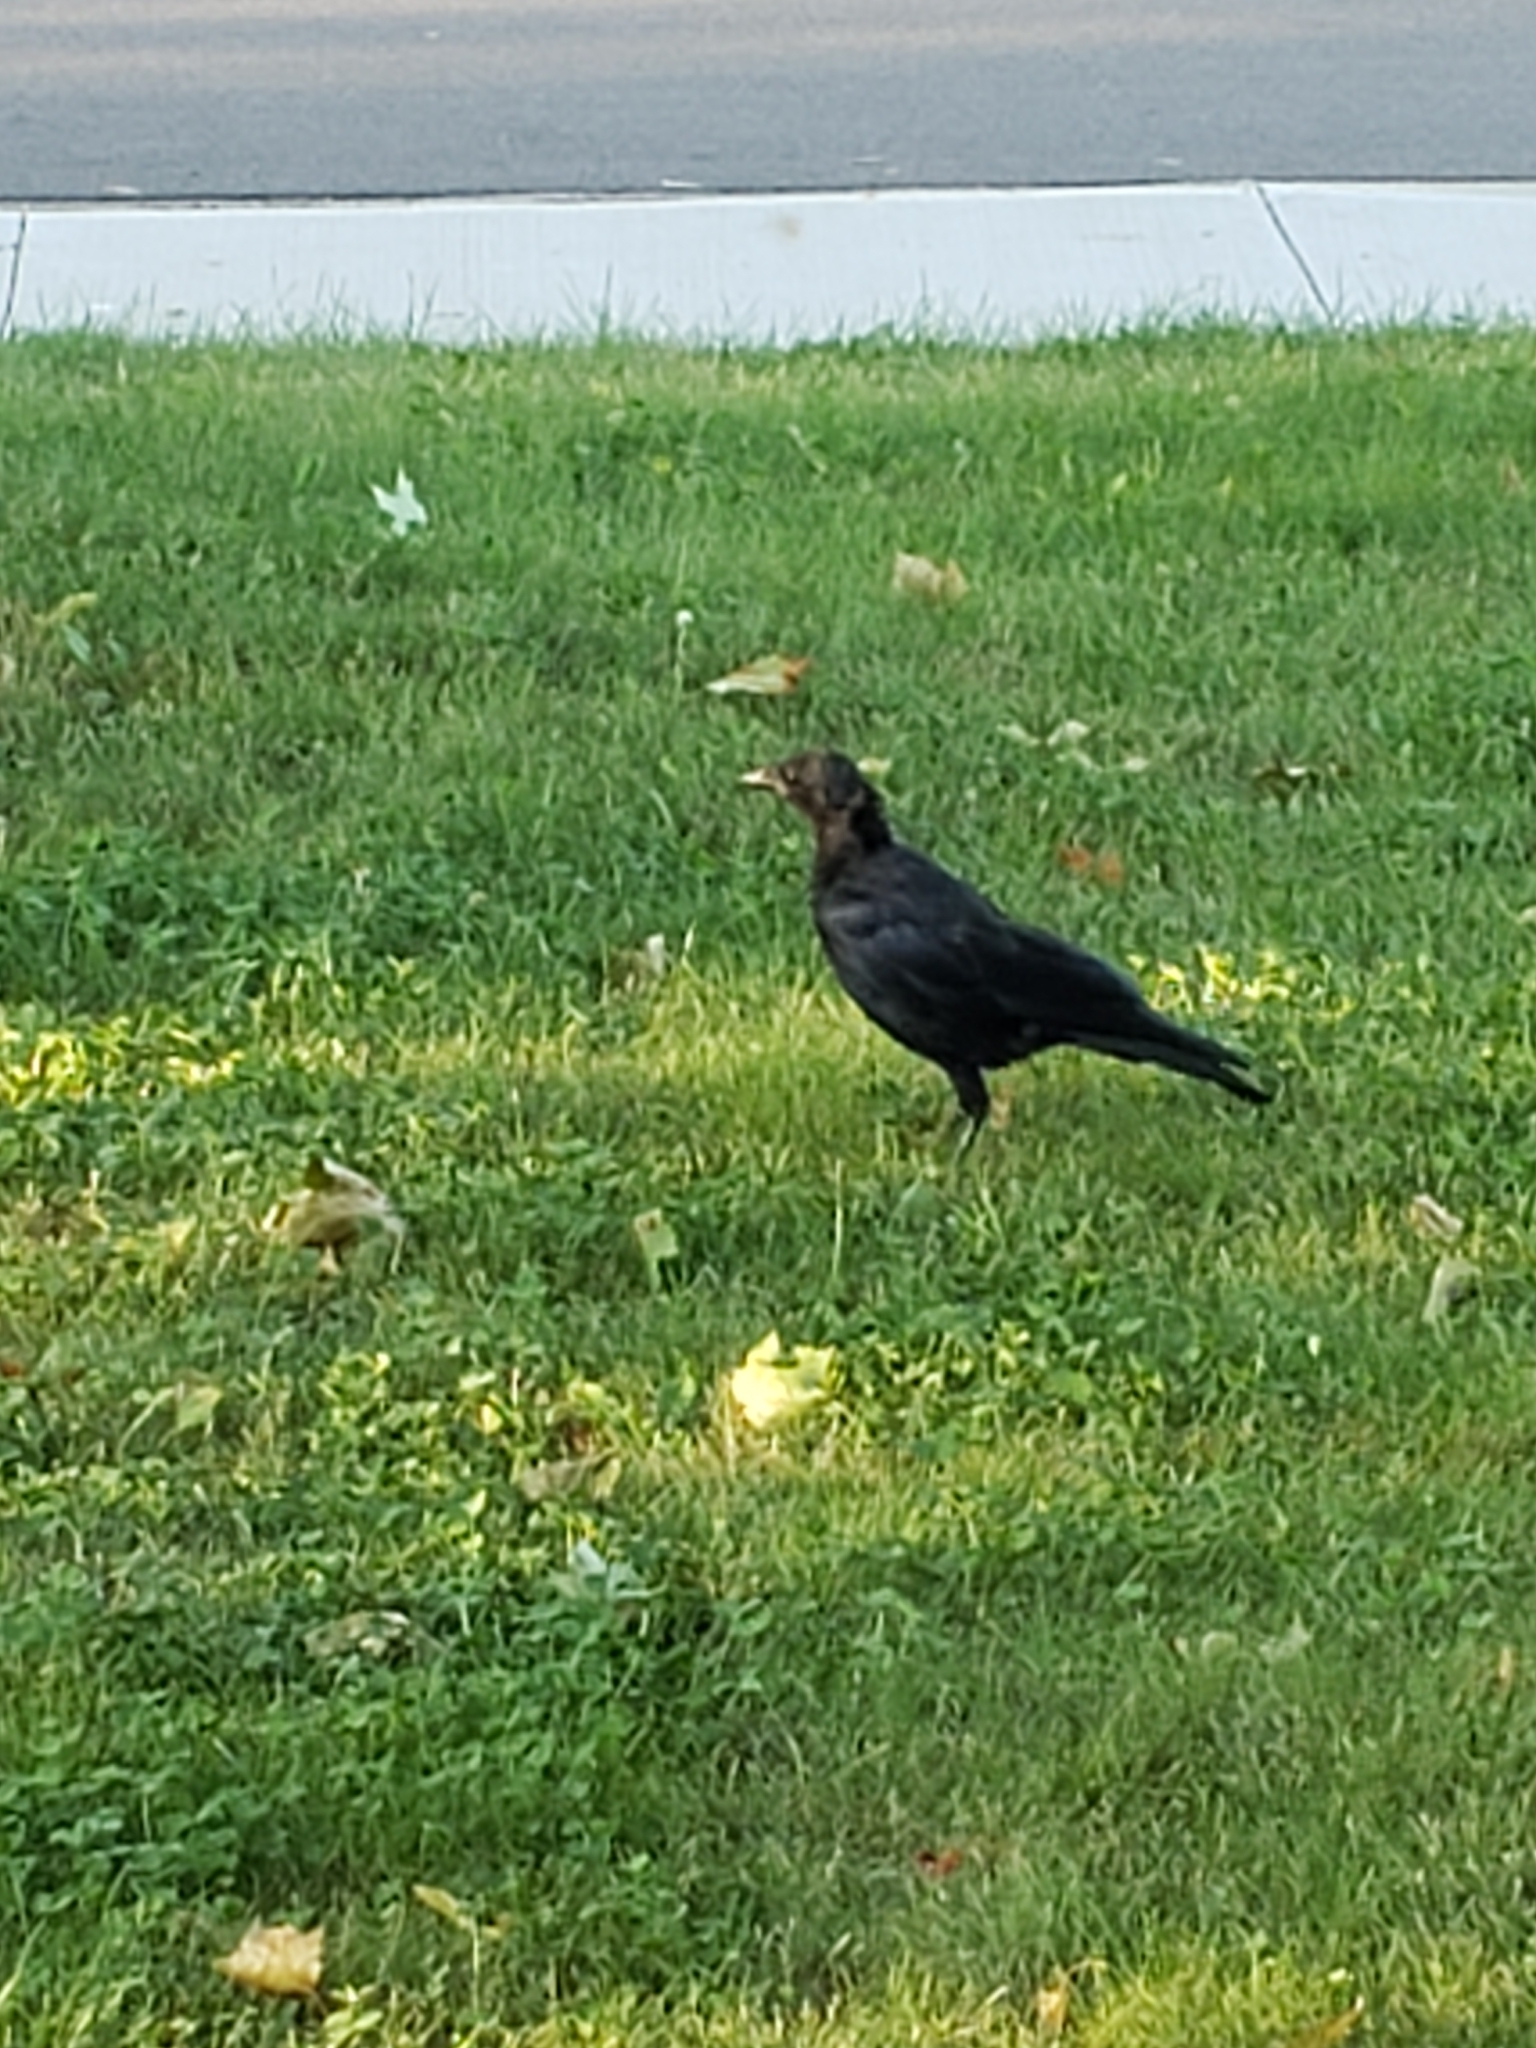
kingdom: Animalia
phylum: Chordata
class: Aves
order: Passeriformes
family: Corvidae
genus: Corvus
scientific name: Corvus brachyrhynchos
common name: American crow
